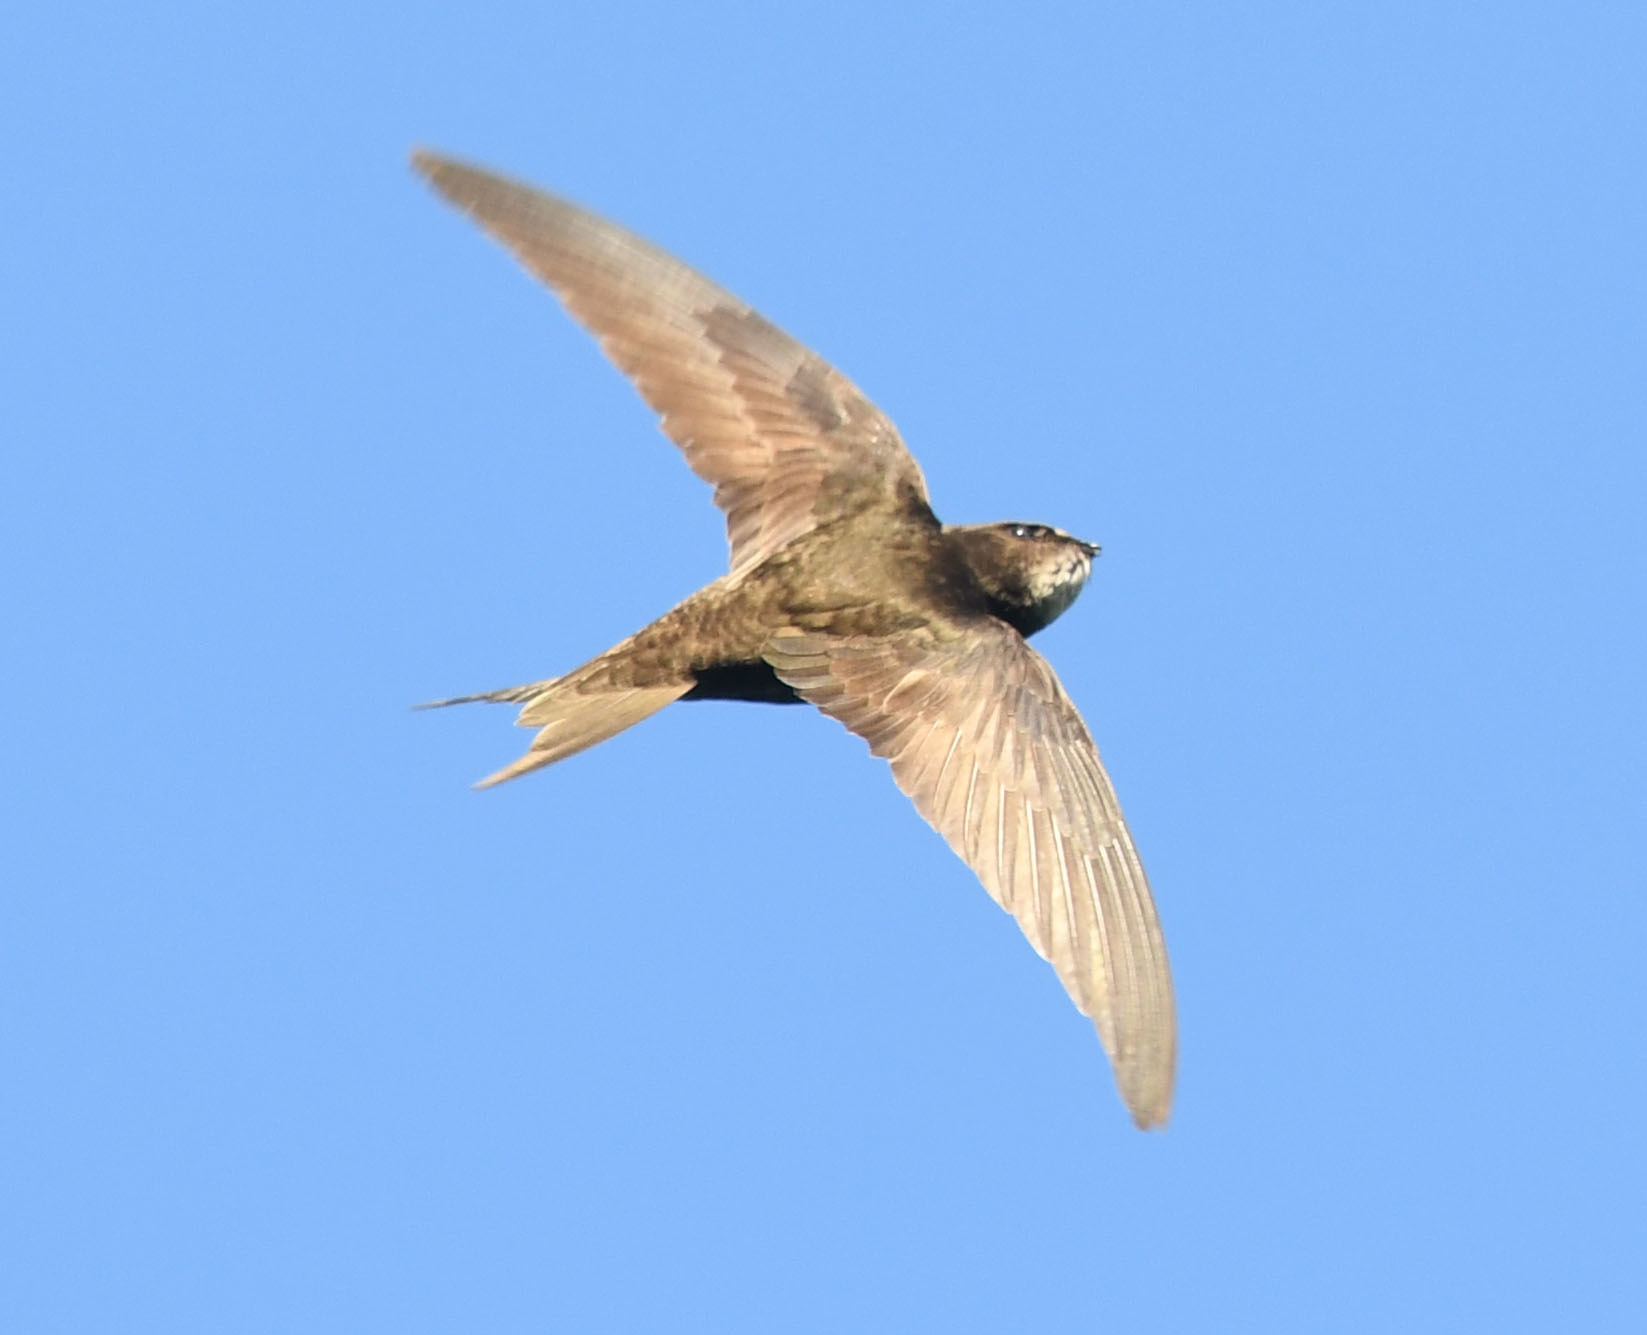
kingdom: Animalia
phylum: Chordata
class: Aves
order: Apodiformes
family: Apodidae
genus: Apus
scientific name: Apus apus
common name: Common swift
